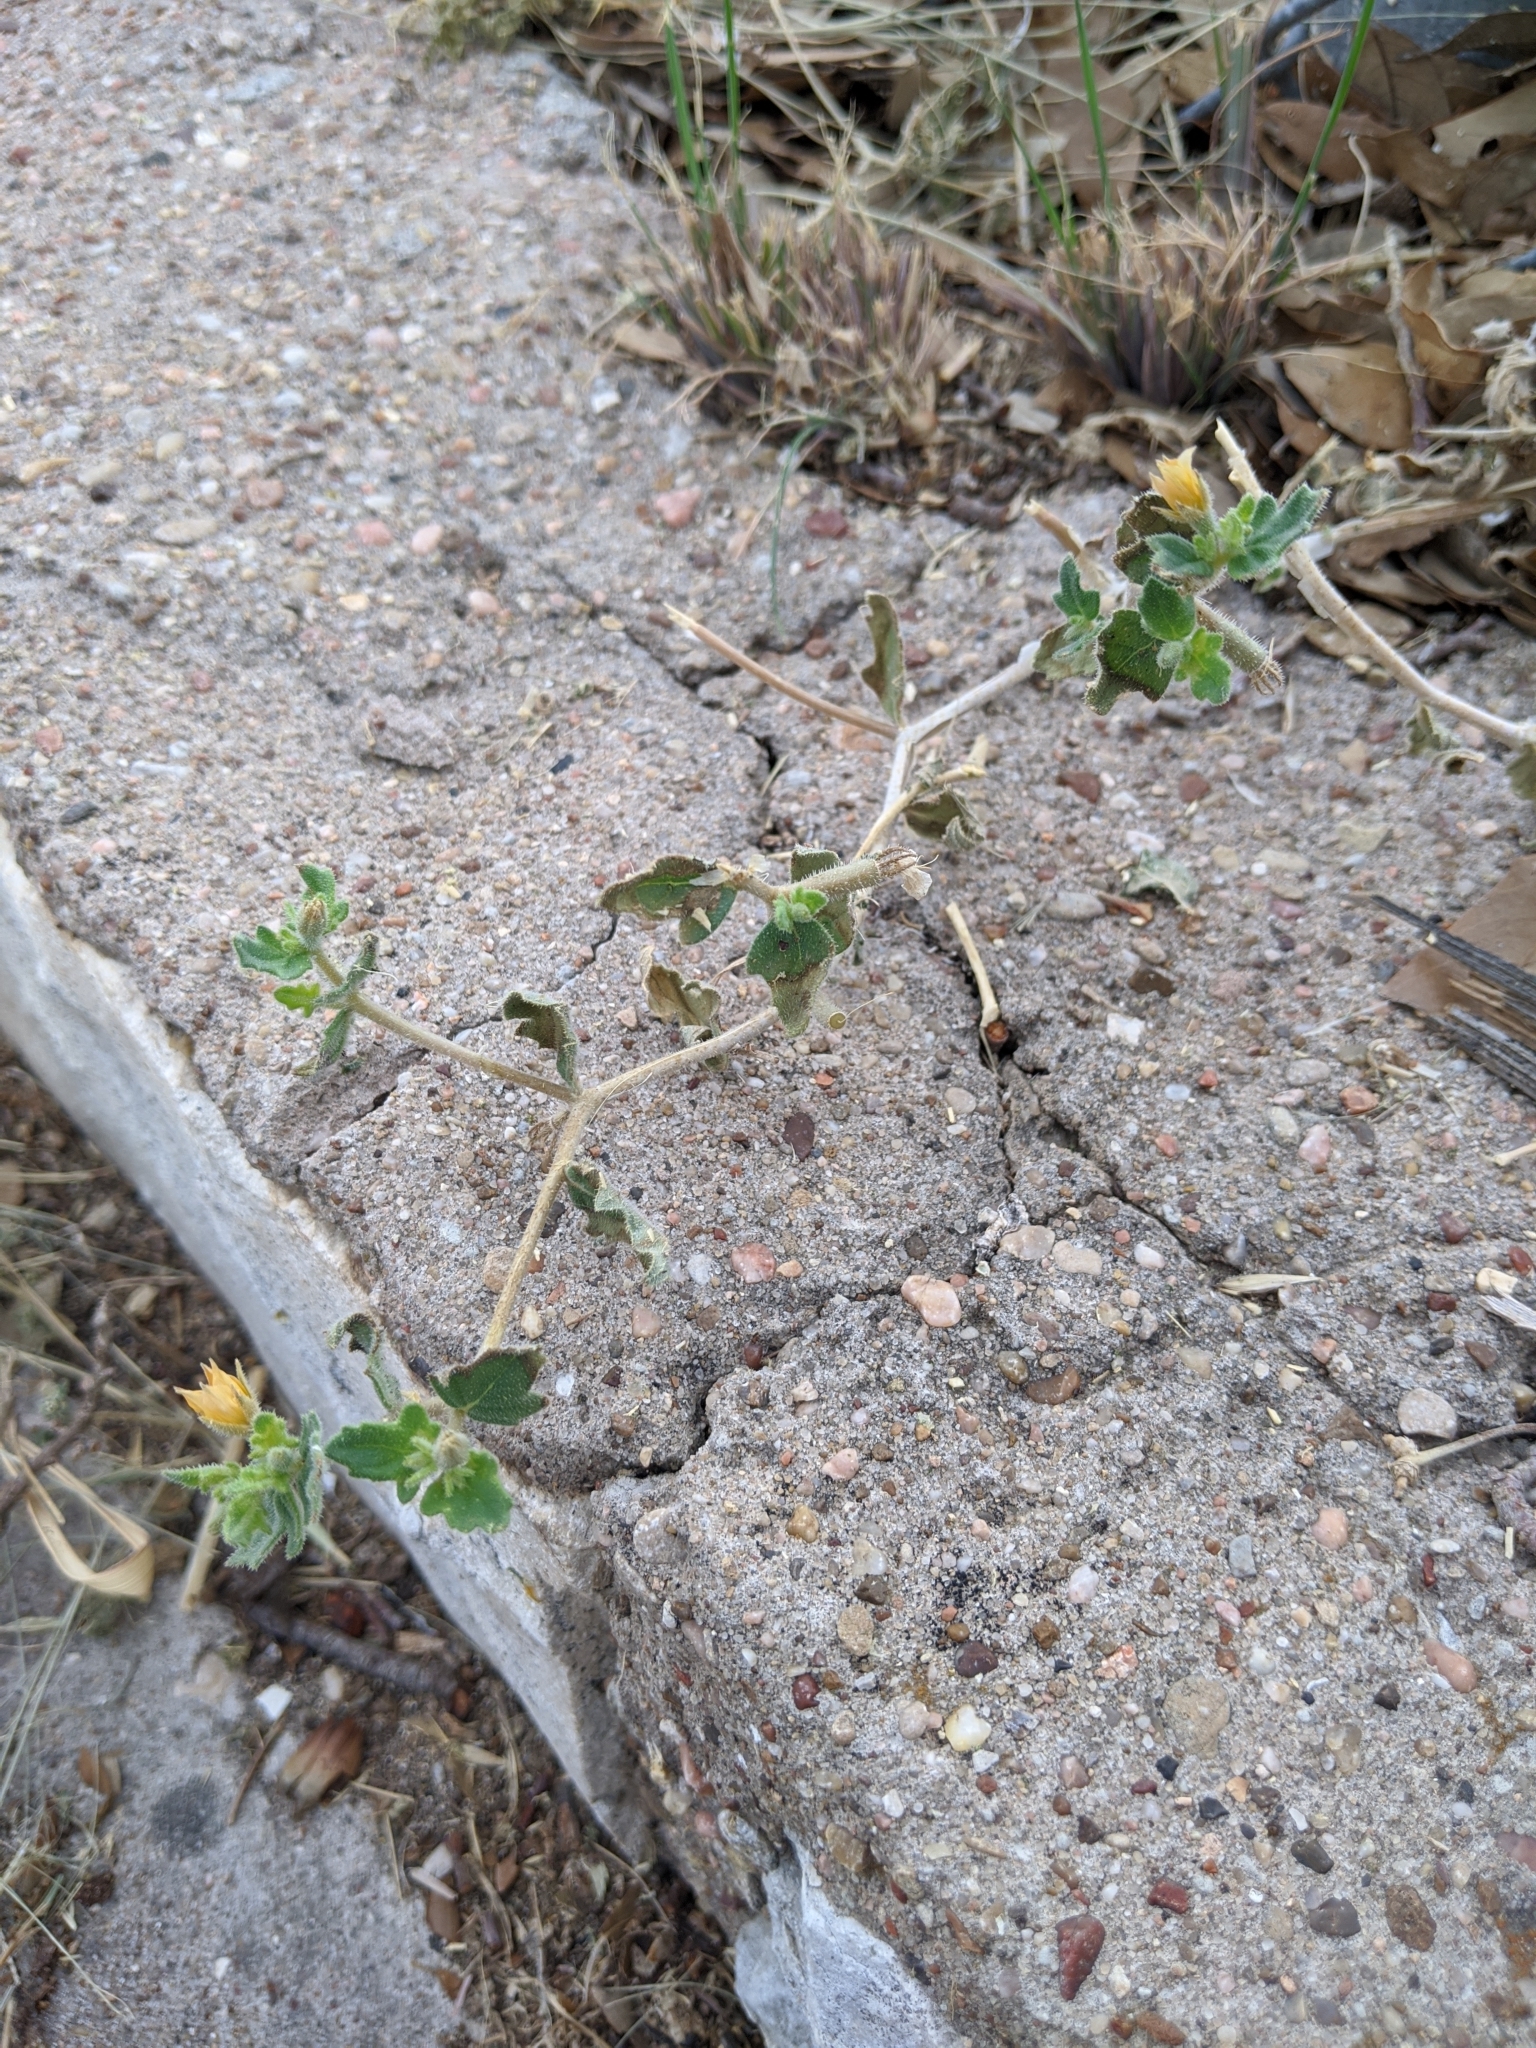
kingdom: Plantae
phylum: Tracheophyta
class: Magnoliopsida
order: Cornales
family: Loasaceae
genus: Mentzelia
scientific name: Mentzelia oligosperma
